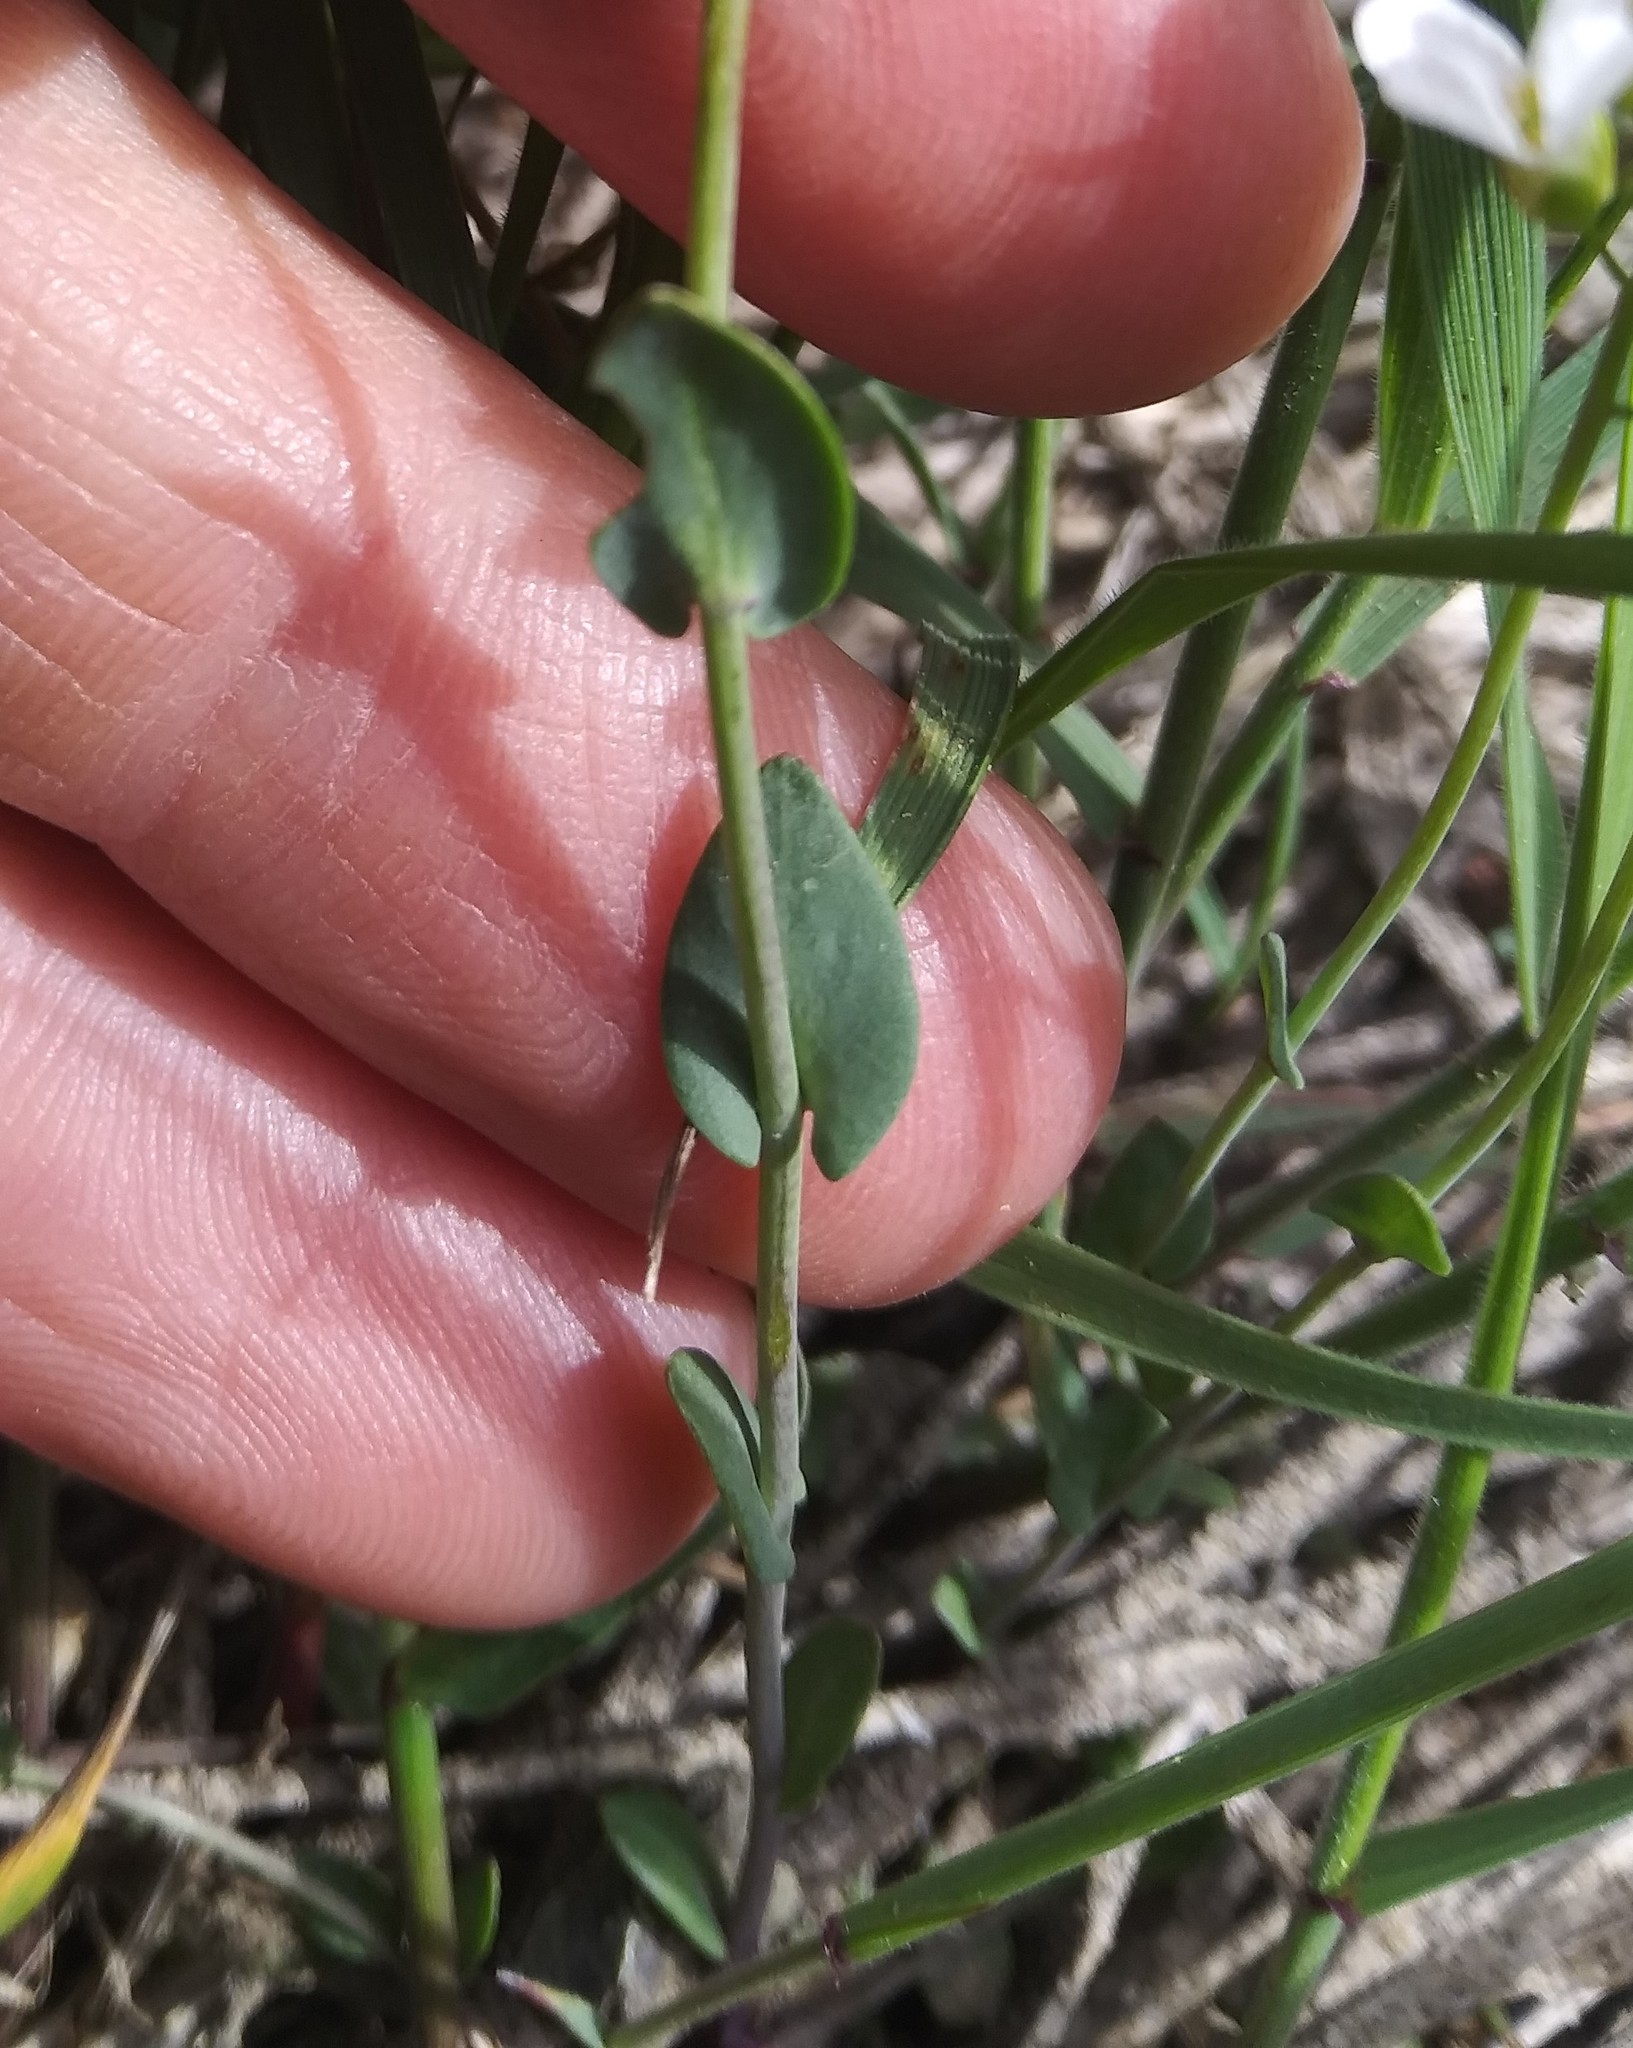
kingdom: Plantae
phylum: Tracheophyta
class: Magnoliopsida
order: Brassicales
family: Brassicaceae
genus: Noccaea
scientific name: Noccaea fendleri
